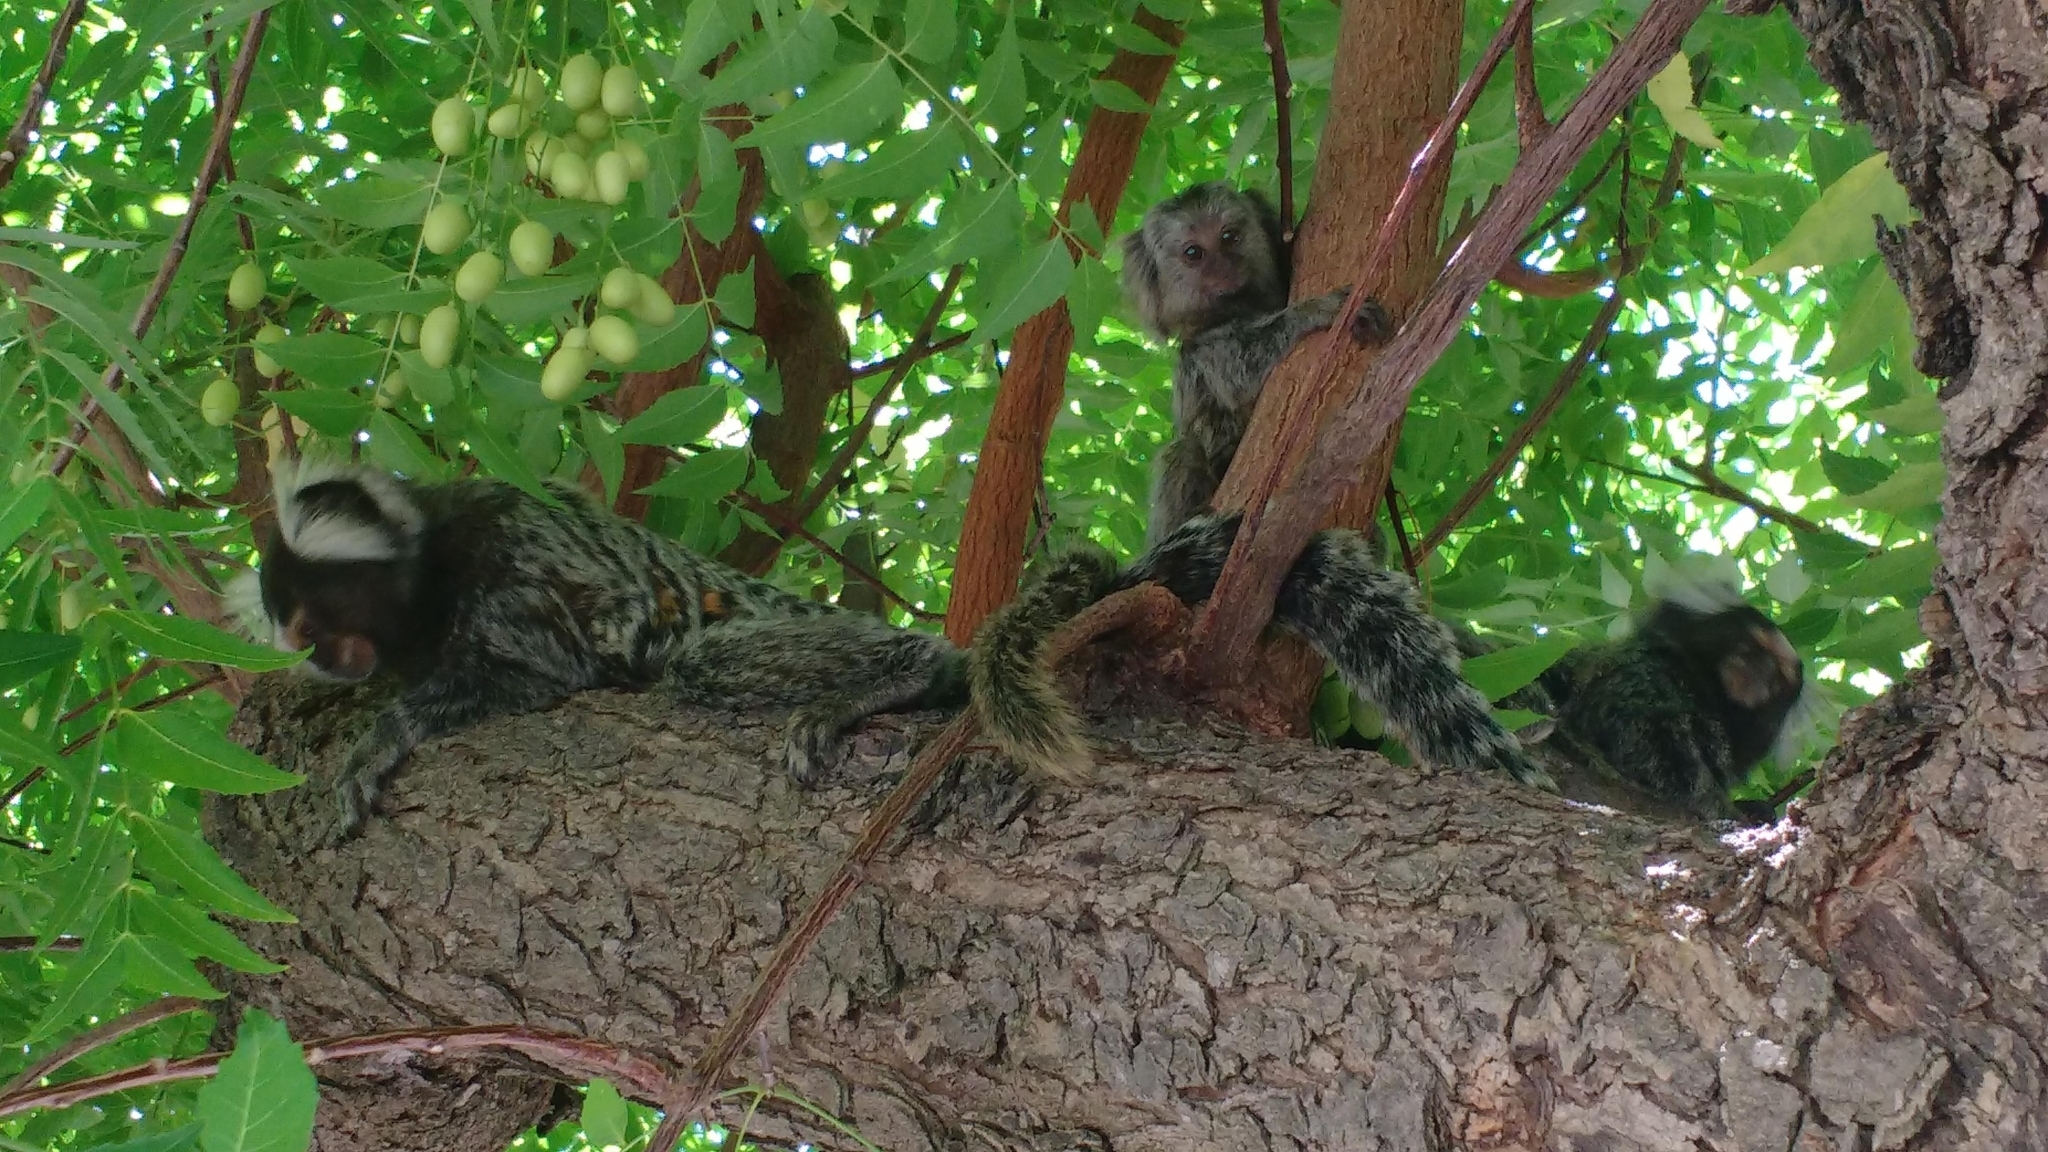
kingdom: Animalia
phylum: Chordata
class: Mammalia
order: Primates
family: Callitrichidae
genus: Callithrix
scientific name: Callithrix jacchus
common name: Common marmoset
